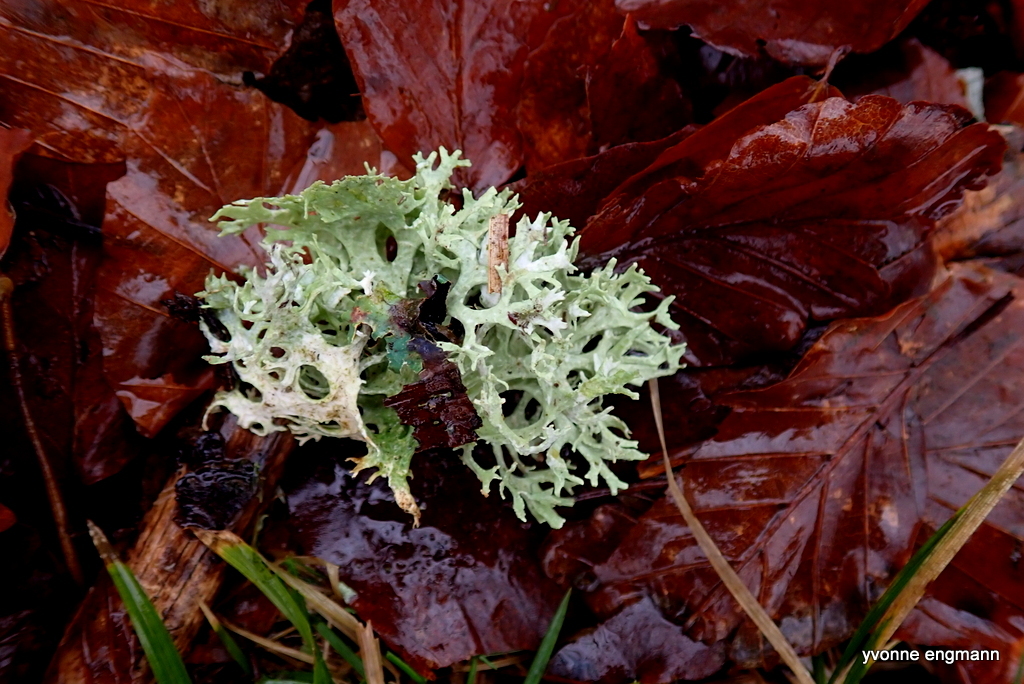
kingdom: Fungi
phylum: Ascomycota
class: Lecanoromycetes
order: Lecanorales
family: Parmeliaceae
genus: Evernia
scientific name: Evernia prunastri
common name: Oak moss
